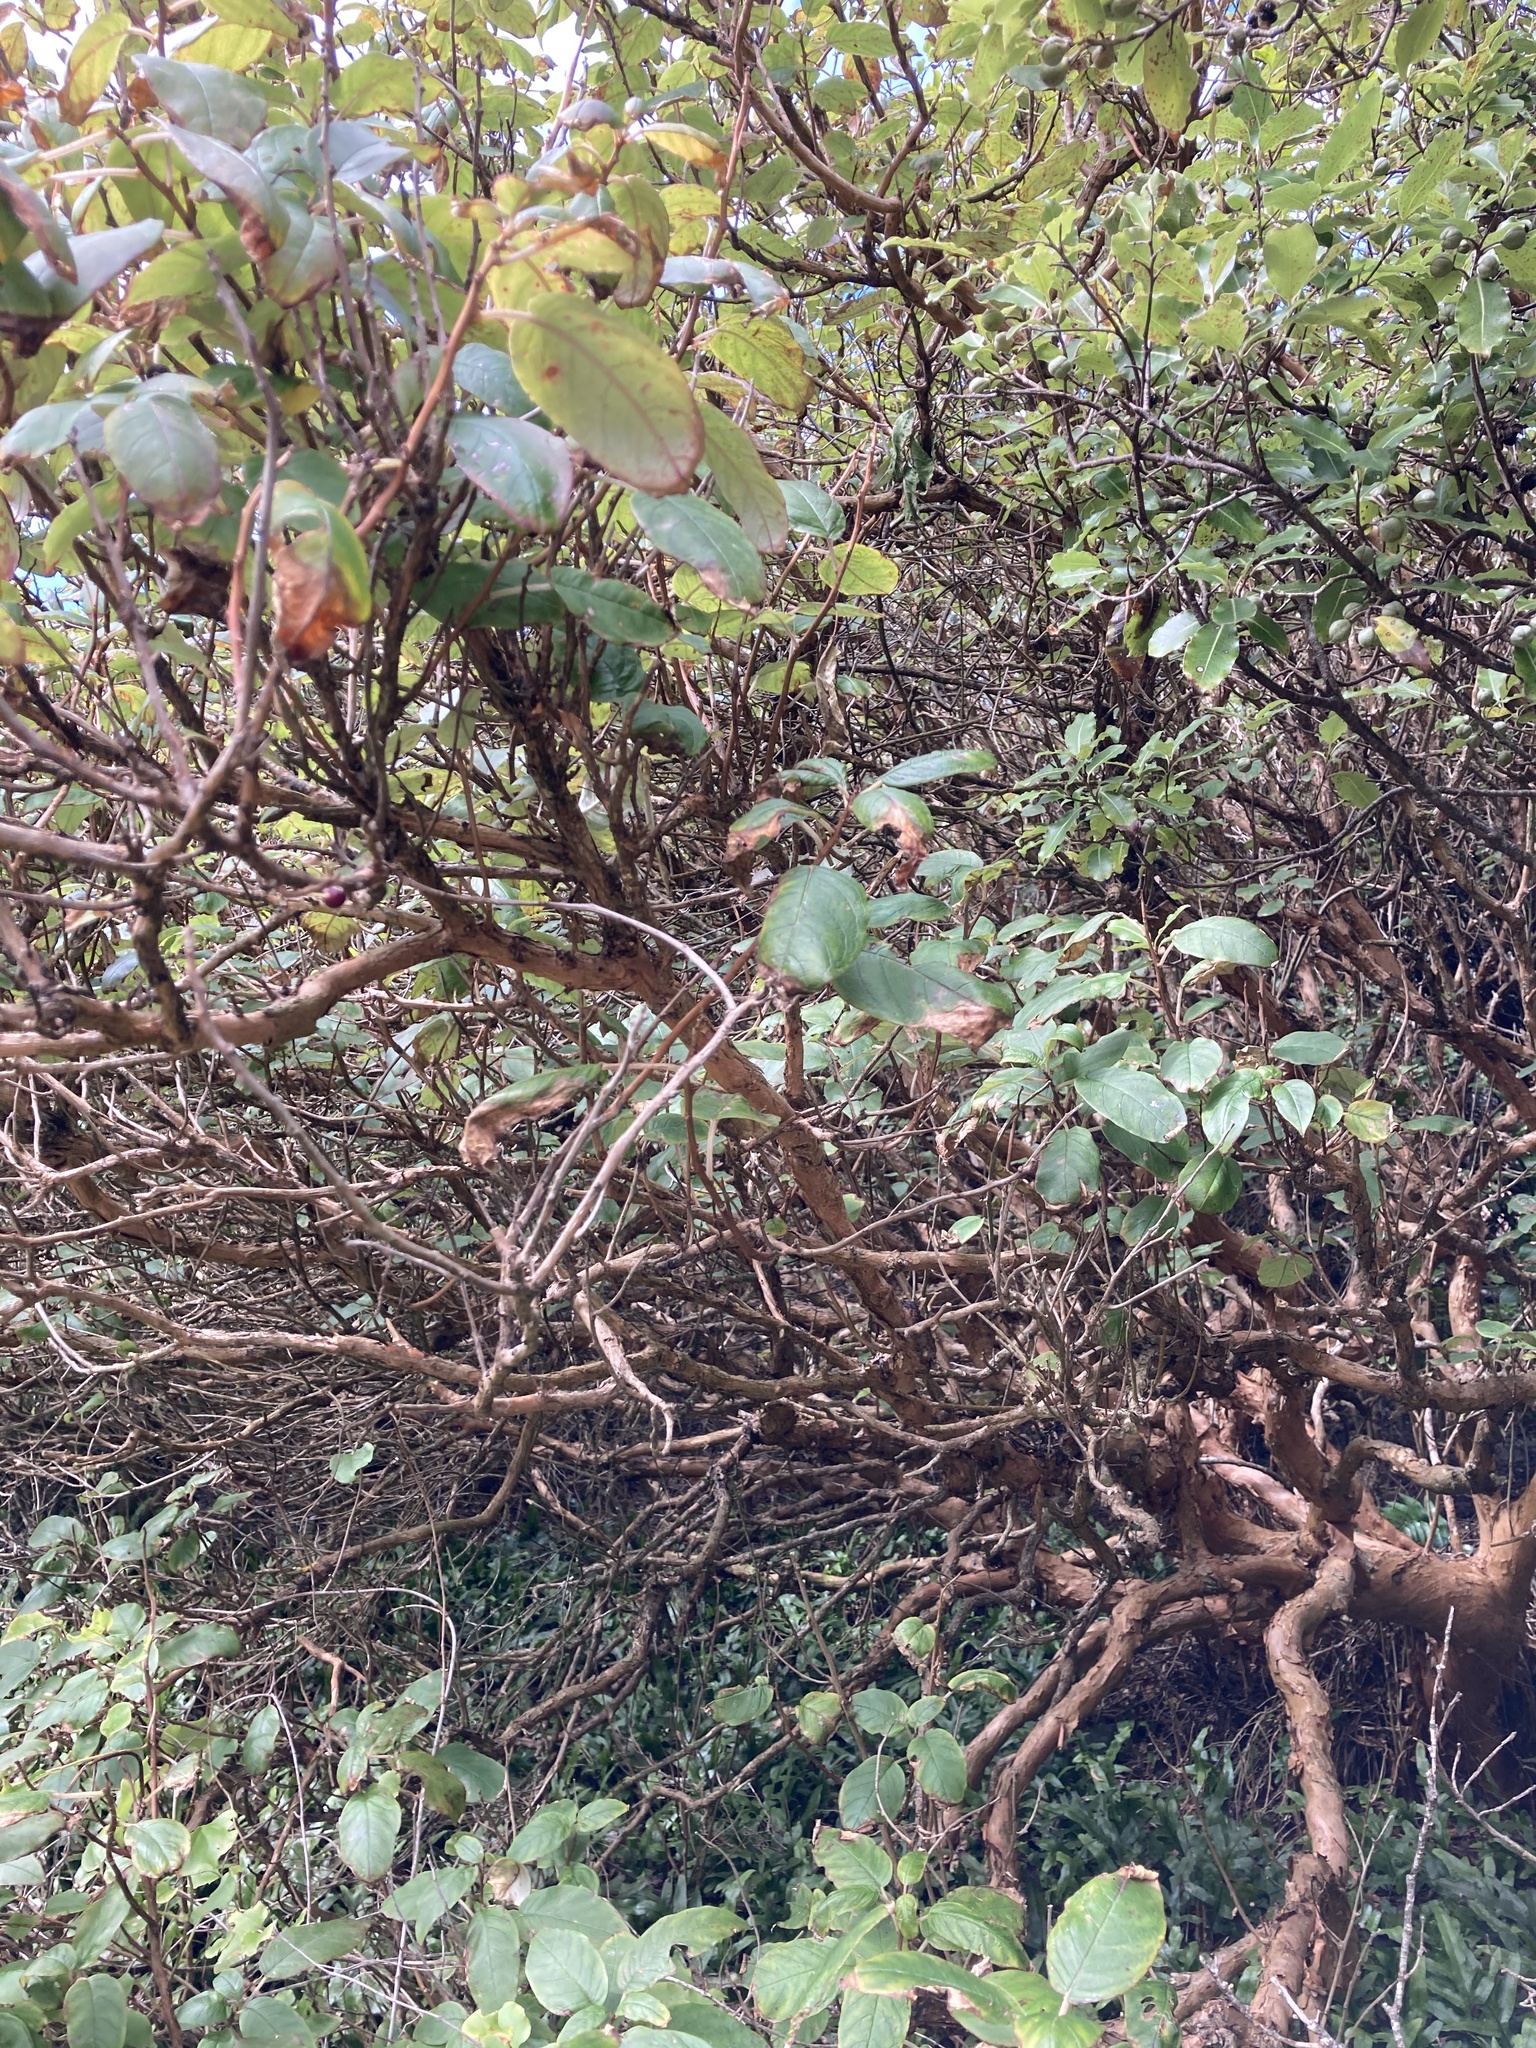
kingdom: Plantae
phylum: Tracheophyta
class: Magnoliopsida
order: Myrtales
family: Onagraceae
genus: Fuchsia
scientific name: Fuchsia excorticata
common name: Tree fuchsia
